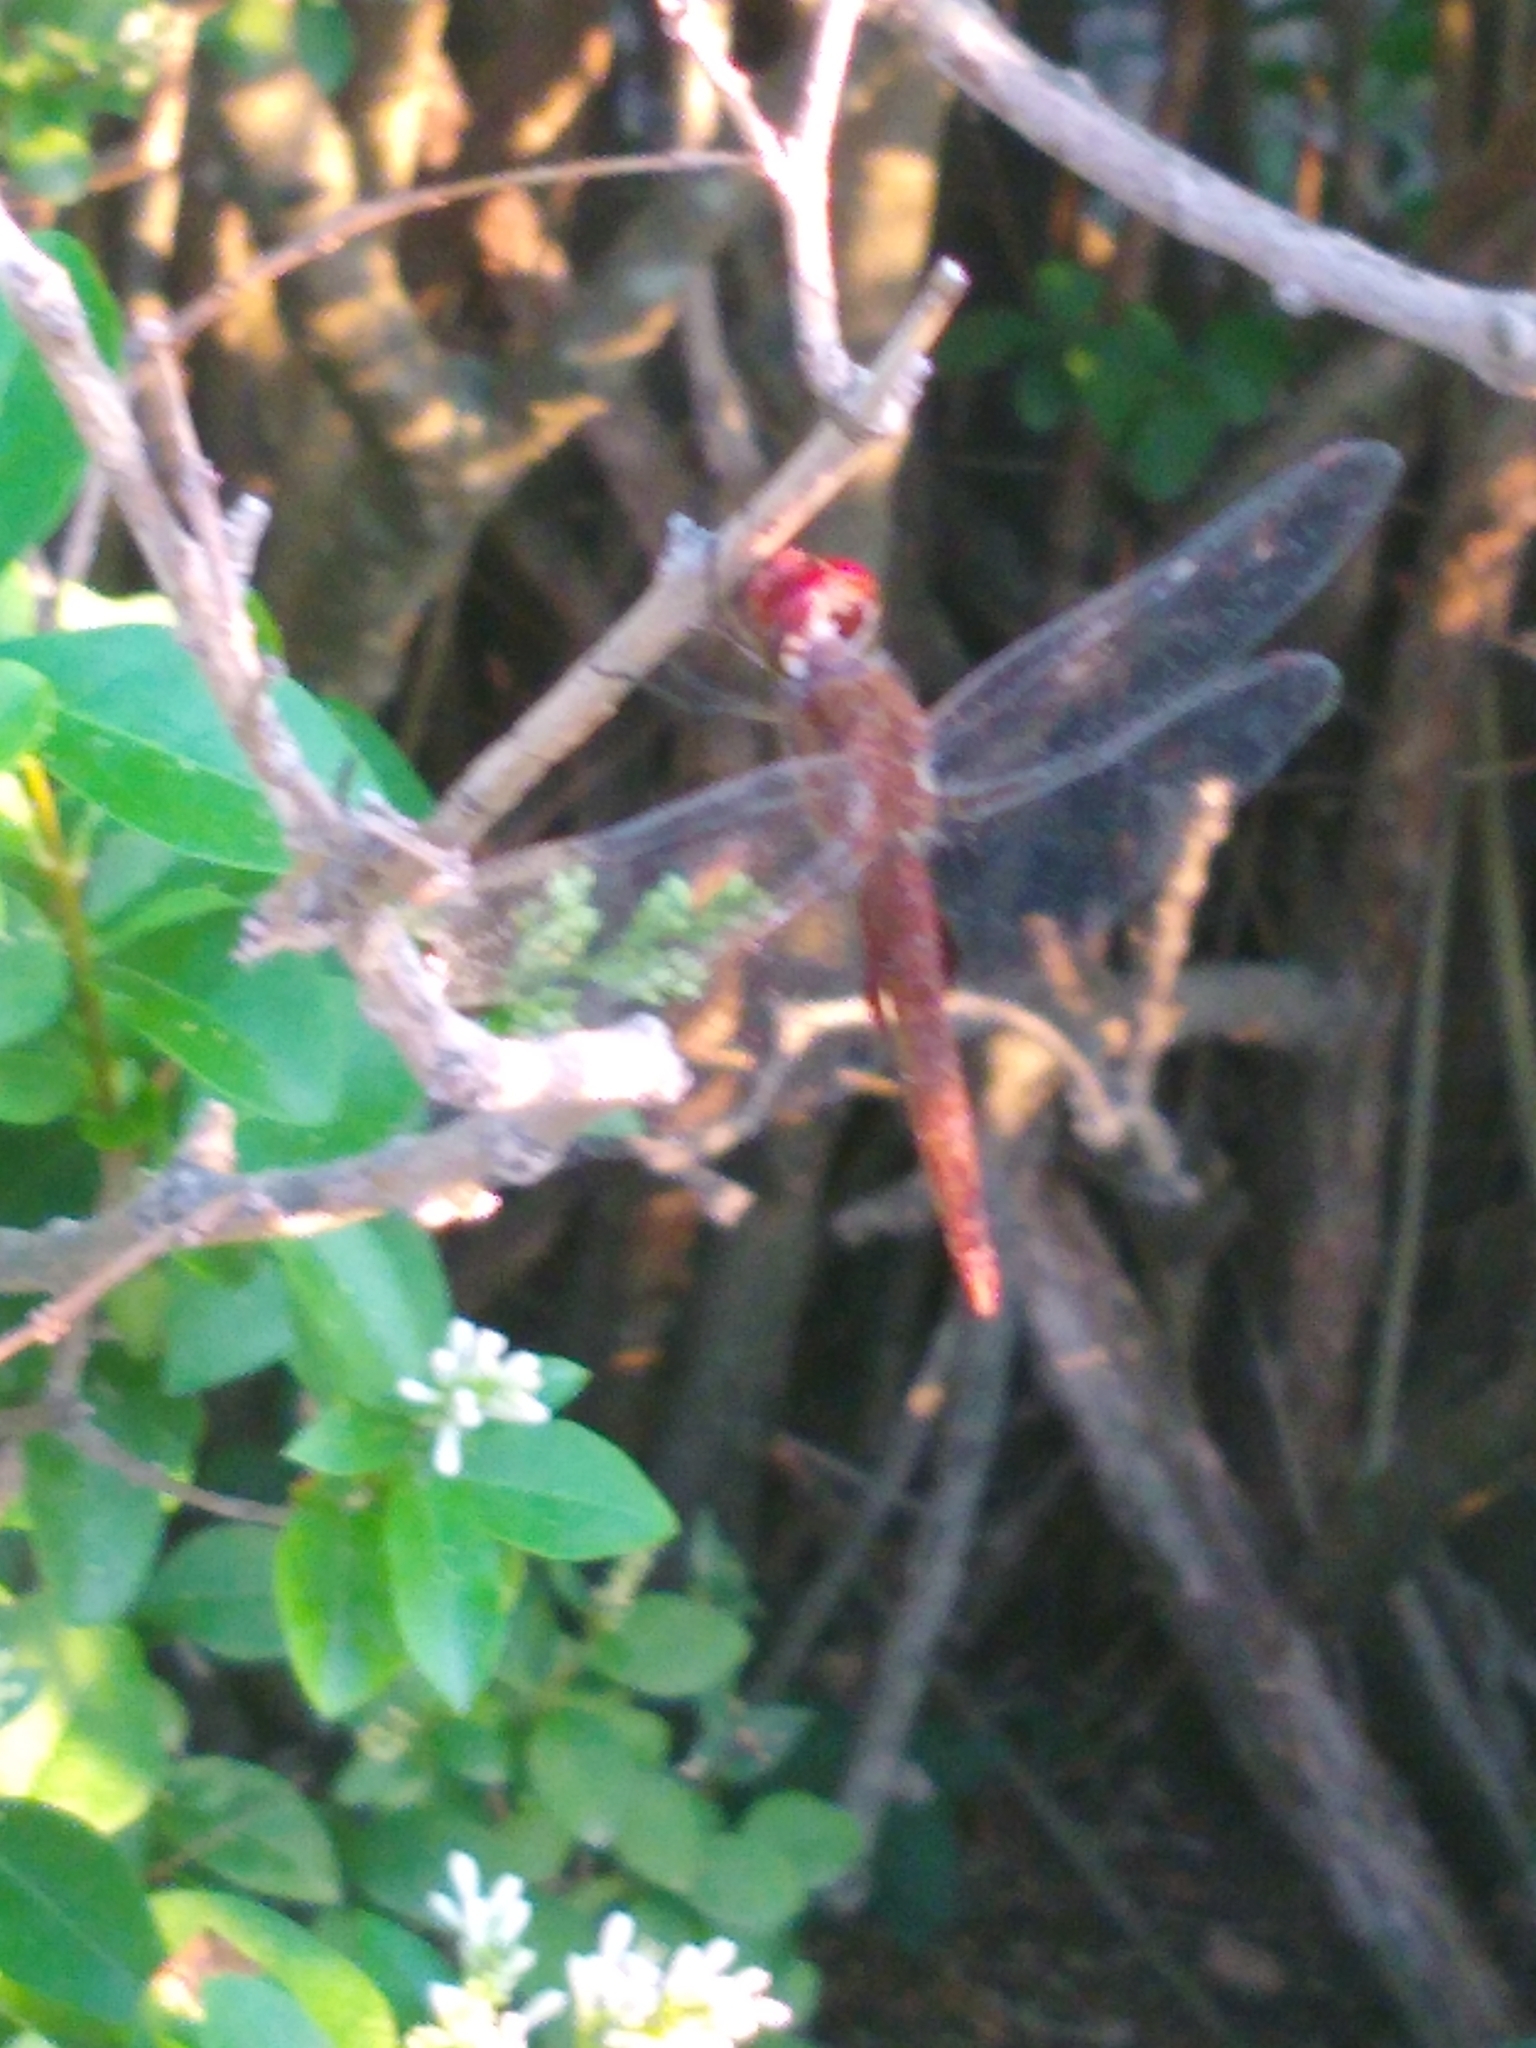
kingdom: Animalia
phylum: Arthropoda
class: Insecta
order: Odonata
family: Libellulidae
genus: Pantala
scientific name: Pantala hymenaea
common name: Spot-winged glider
